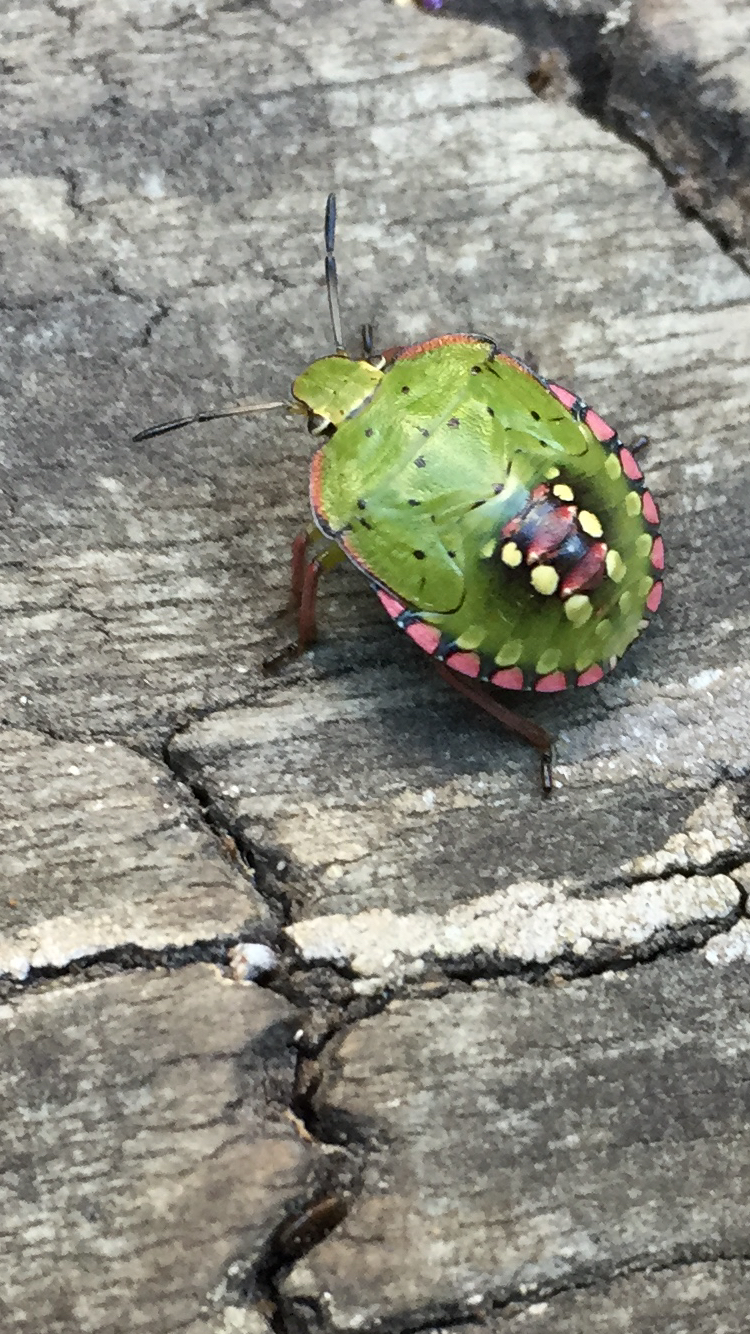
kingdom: Animalia
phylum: Arthropoda
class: Insecta
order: Hemiptera
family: Pentatomidae
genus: Nezara
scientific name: Nezara viridula
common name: Southern green stink bug
